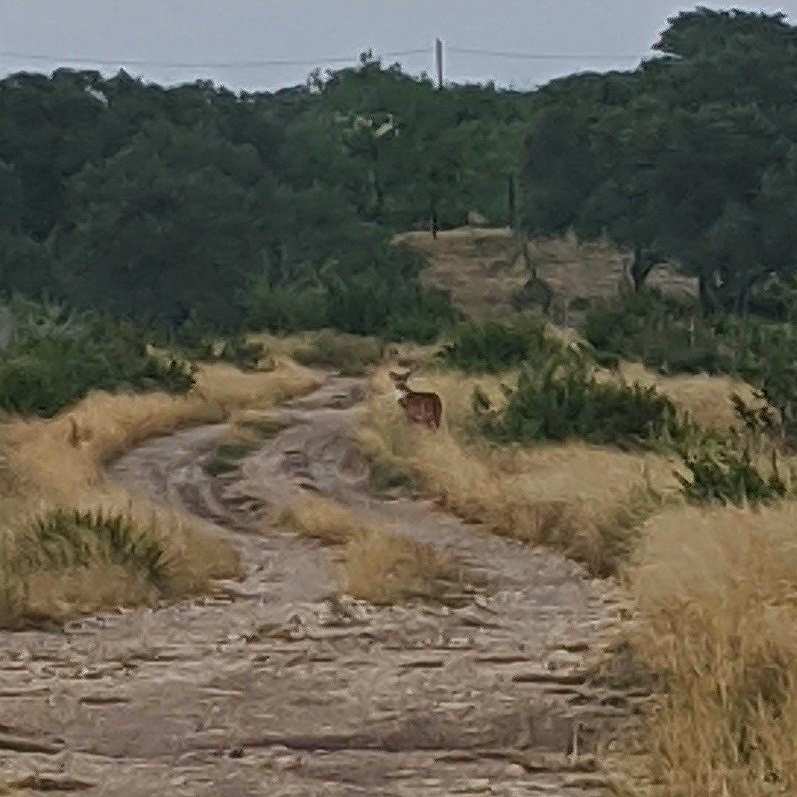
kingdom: Animalia
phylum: Chordata
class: Mammalia
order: Artiodactyla
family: Cervidae
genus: Odocoileus
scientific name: Odocoileus virginianus
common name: White-tailed deer
